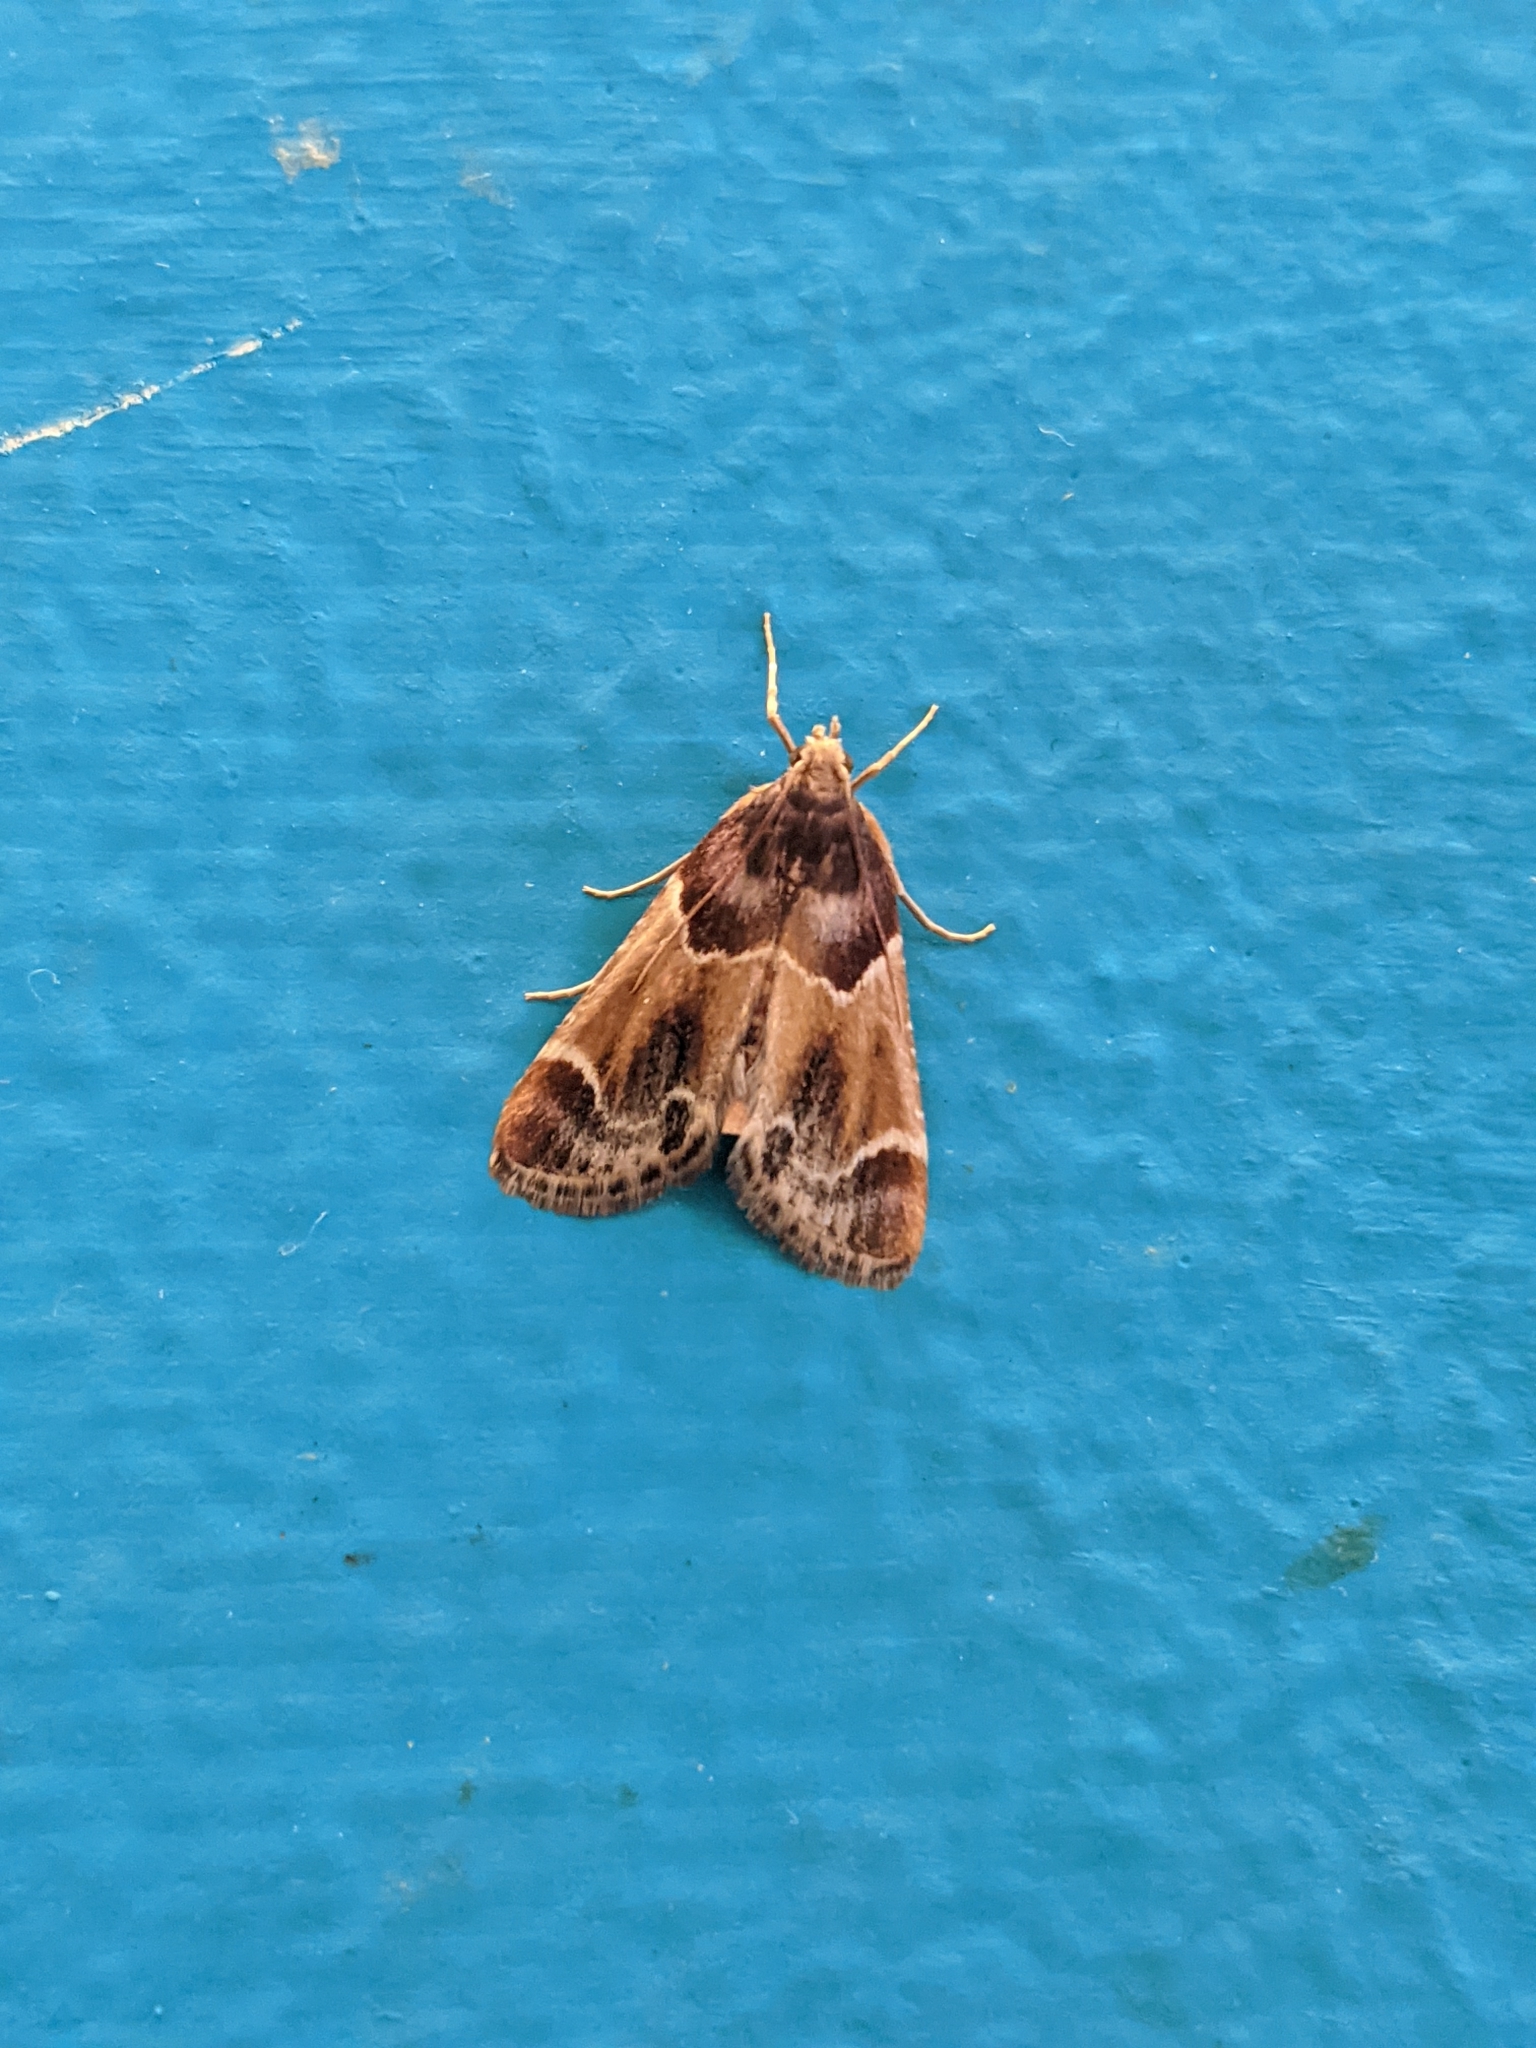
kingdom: Animalia
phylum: Arthropoda
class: Insecta
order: Lepidoptera
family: Pyralidae
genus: Pyralis
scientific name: Pyralis farinalis
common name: Meal moth
